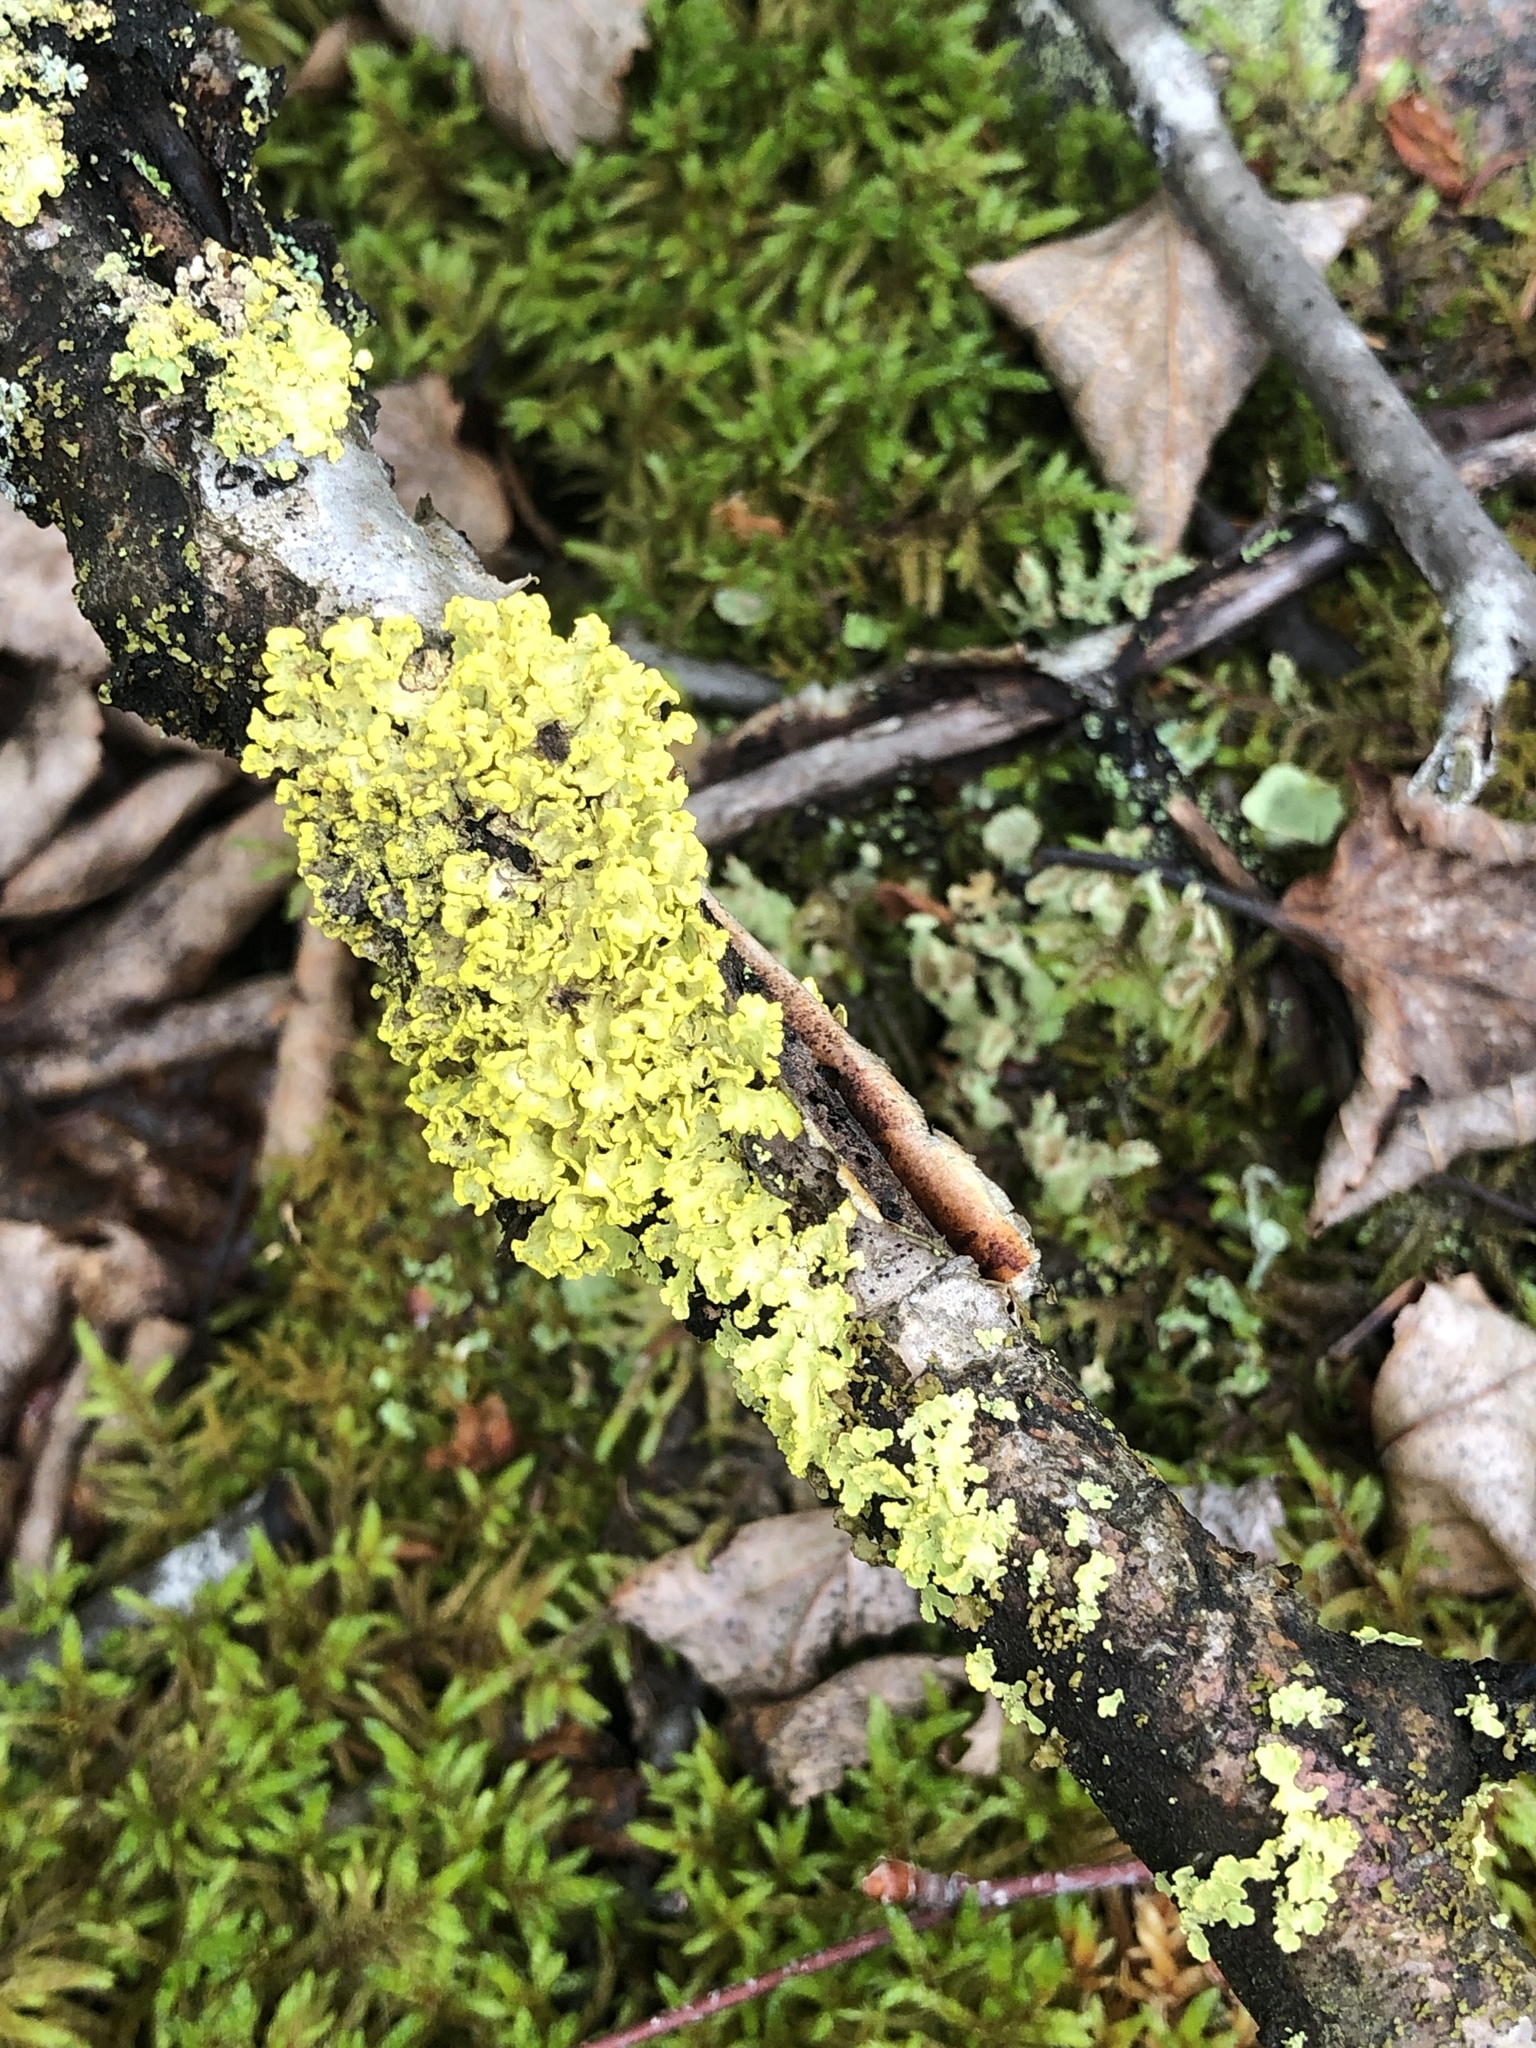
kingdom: Fungi
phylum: Ascomycota
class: Lecanoromycetes
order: Lecanorales
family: Parmeliaceae
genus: Vulpicida
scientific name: Vulpicida pinastri
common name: Powdered sunshine lichen
